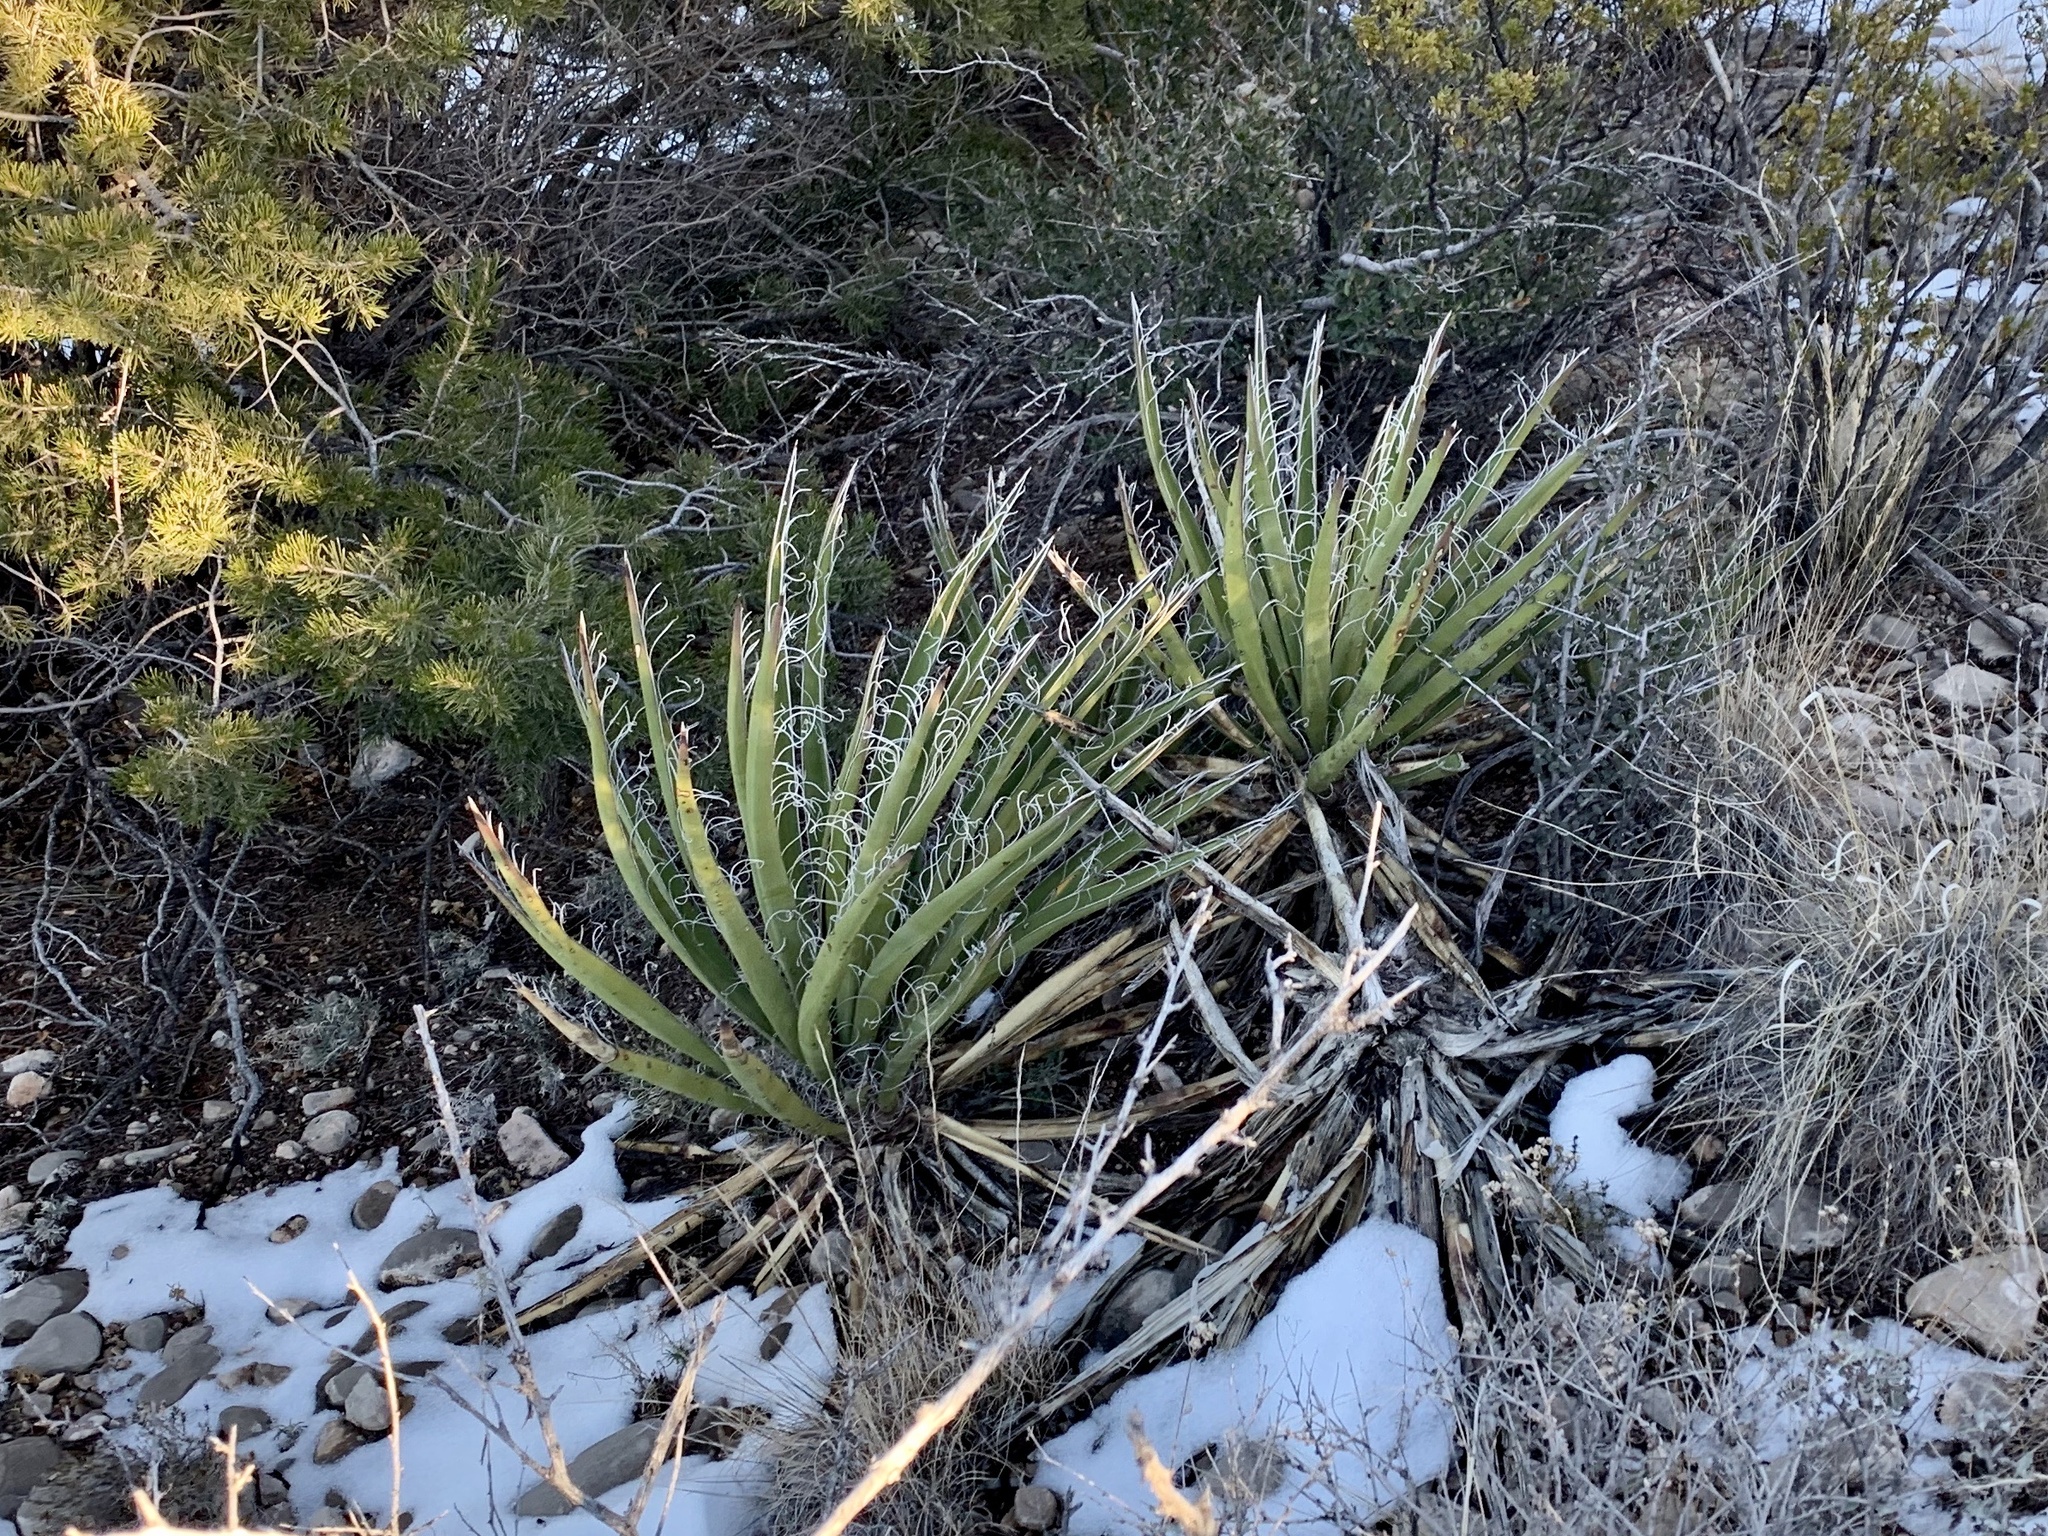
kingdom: Plantae
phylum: Tracheophyta
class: Liliopsida
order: Asparagales
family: Asparagaceae
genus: Yucca
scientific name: Yucca baccata
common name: Banana yucca
